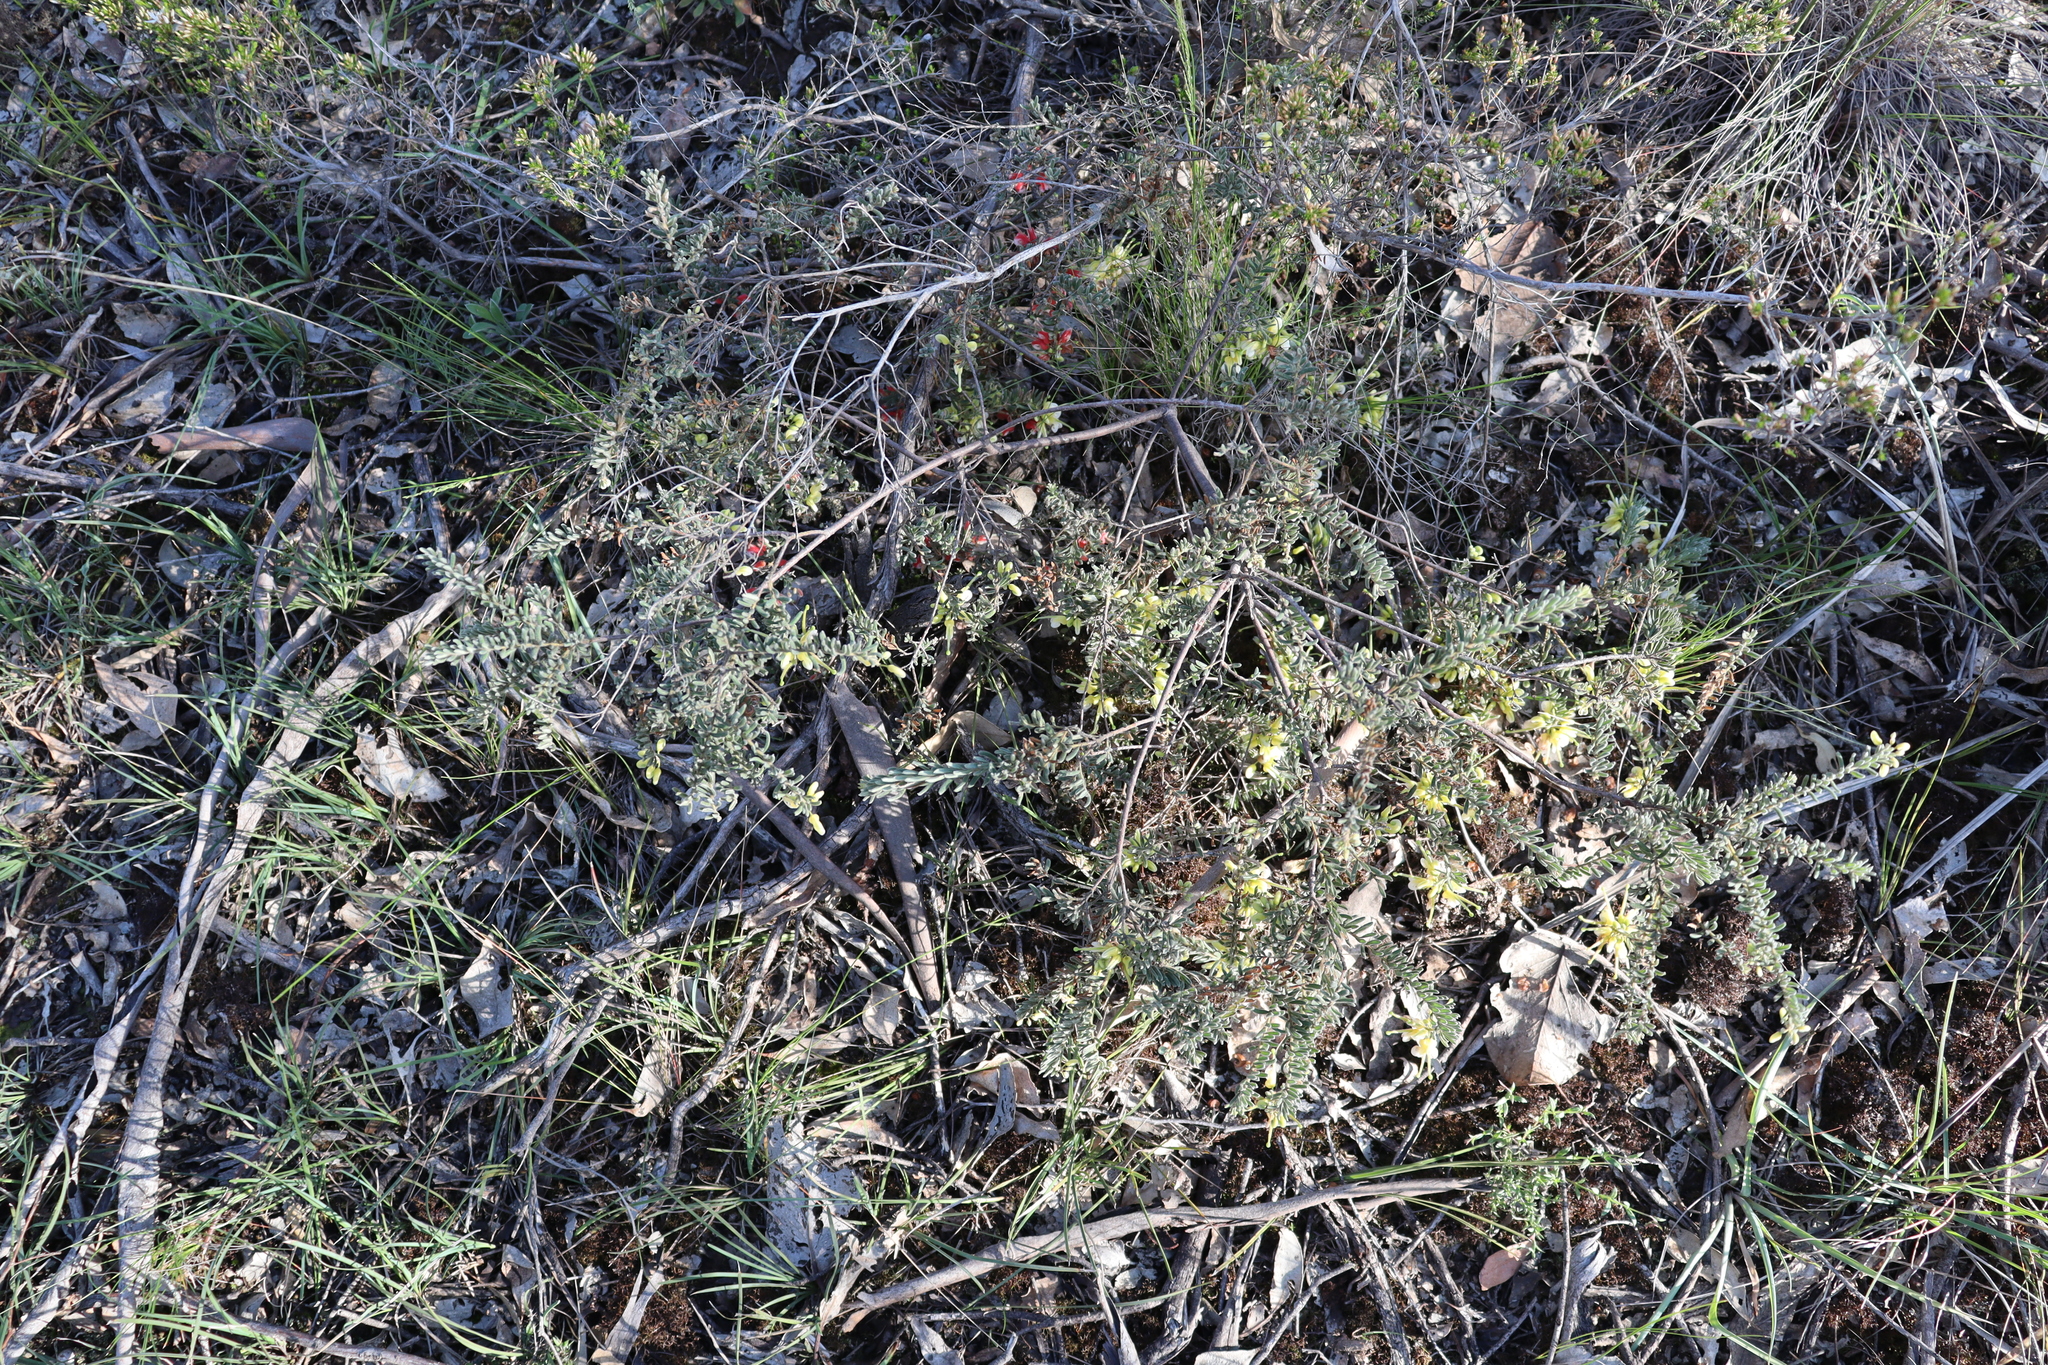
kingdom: Plantae
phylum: Tracheophyta
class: Magnoliopsida
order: Proteales
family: Proteaceae
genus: Grevillea
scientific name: Grevillea alpina
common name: Catclaws grevillea
